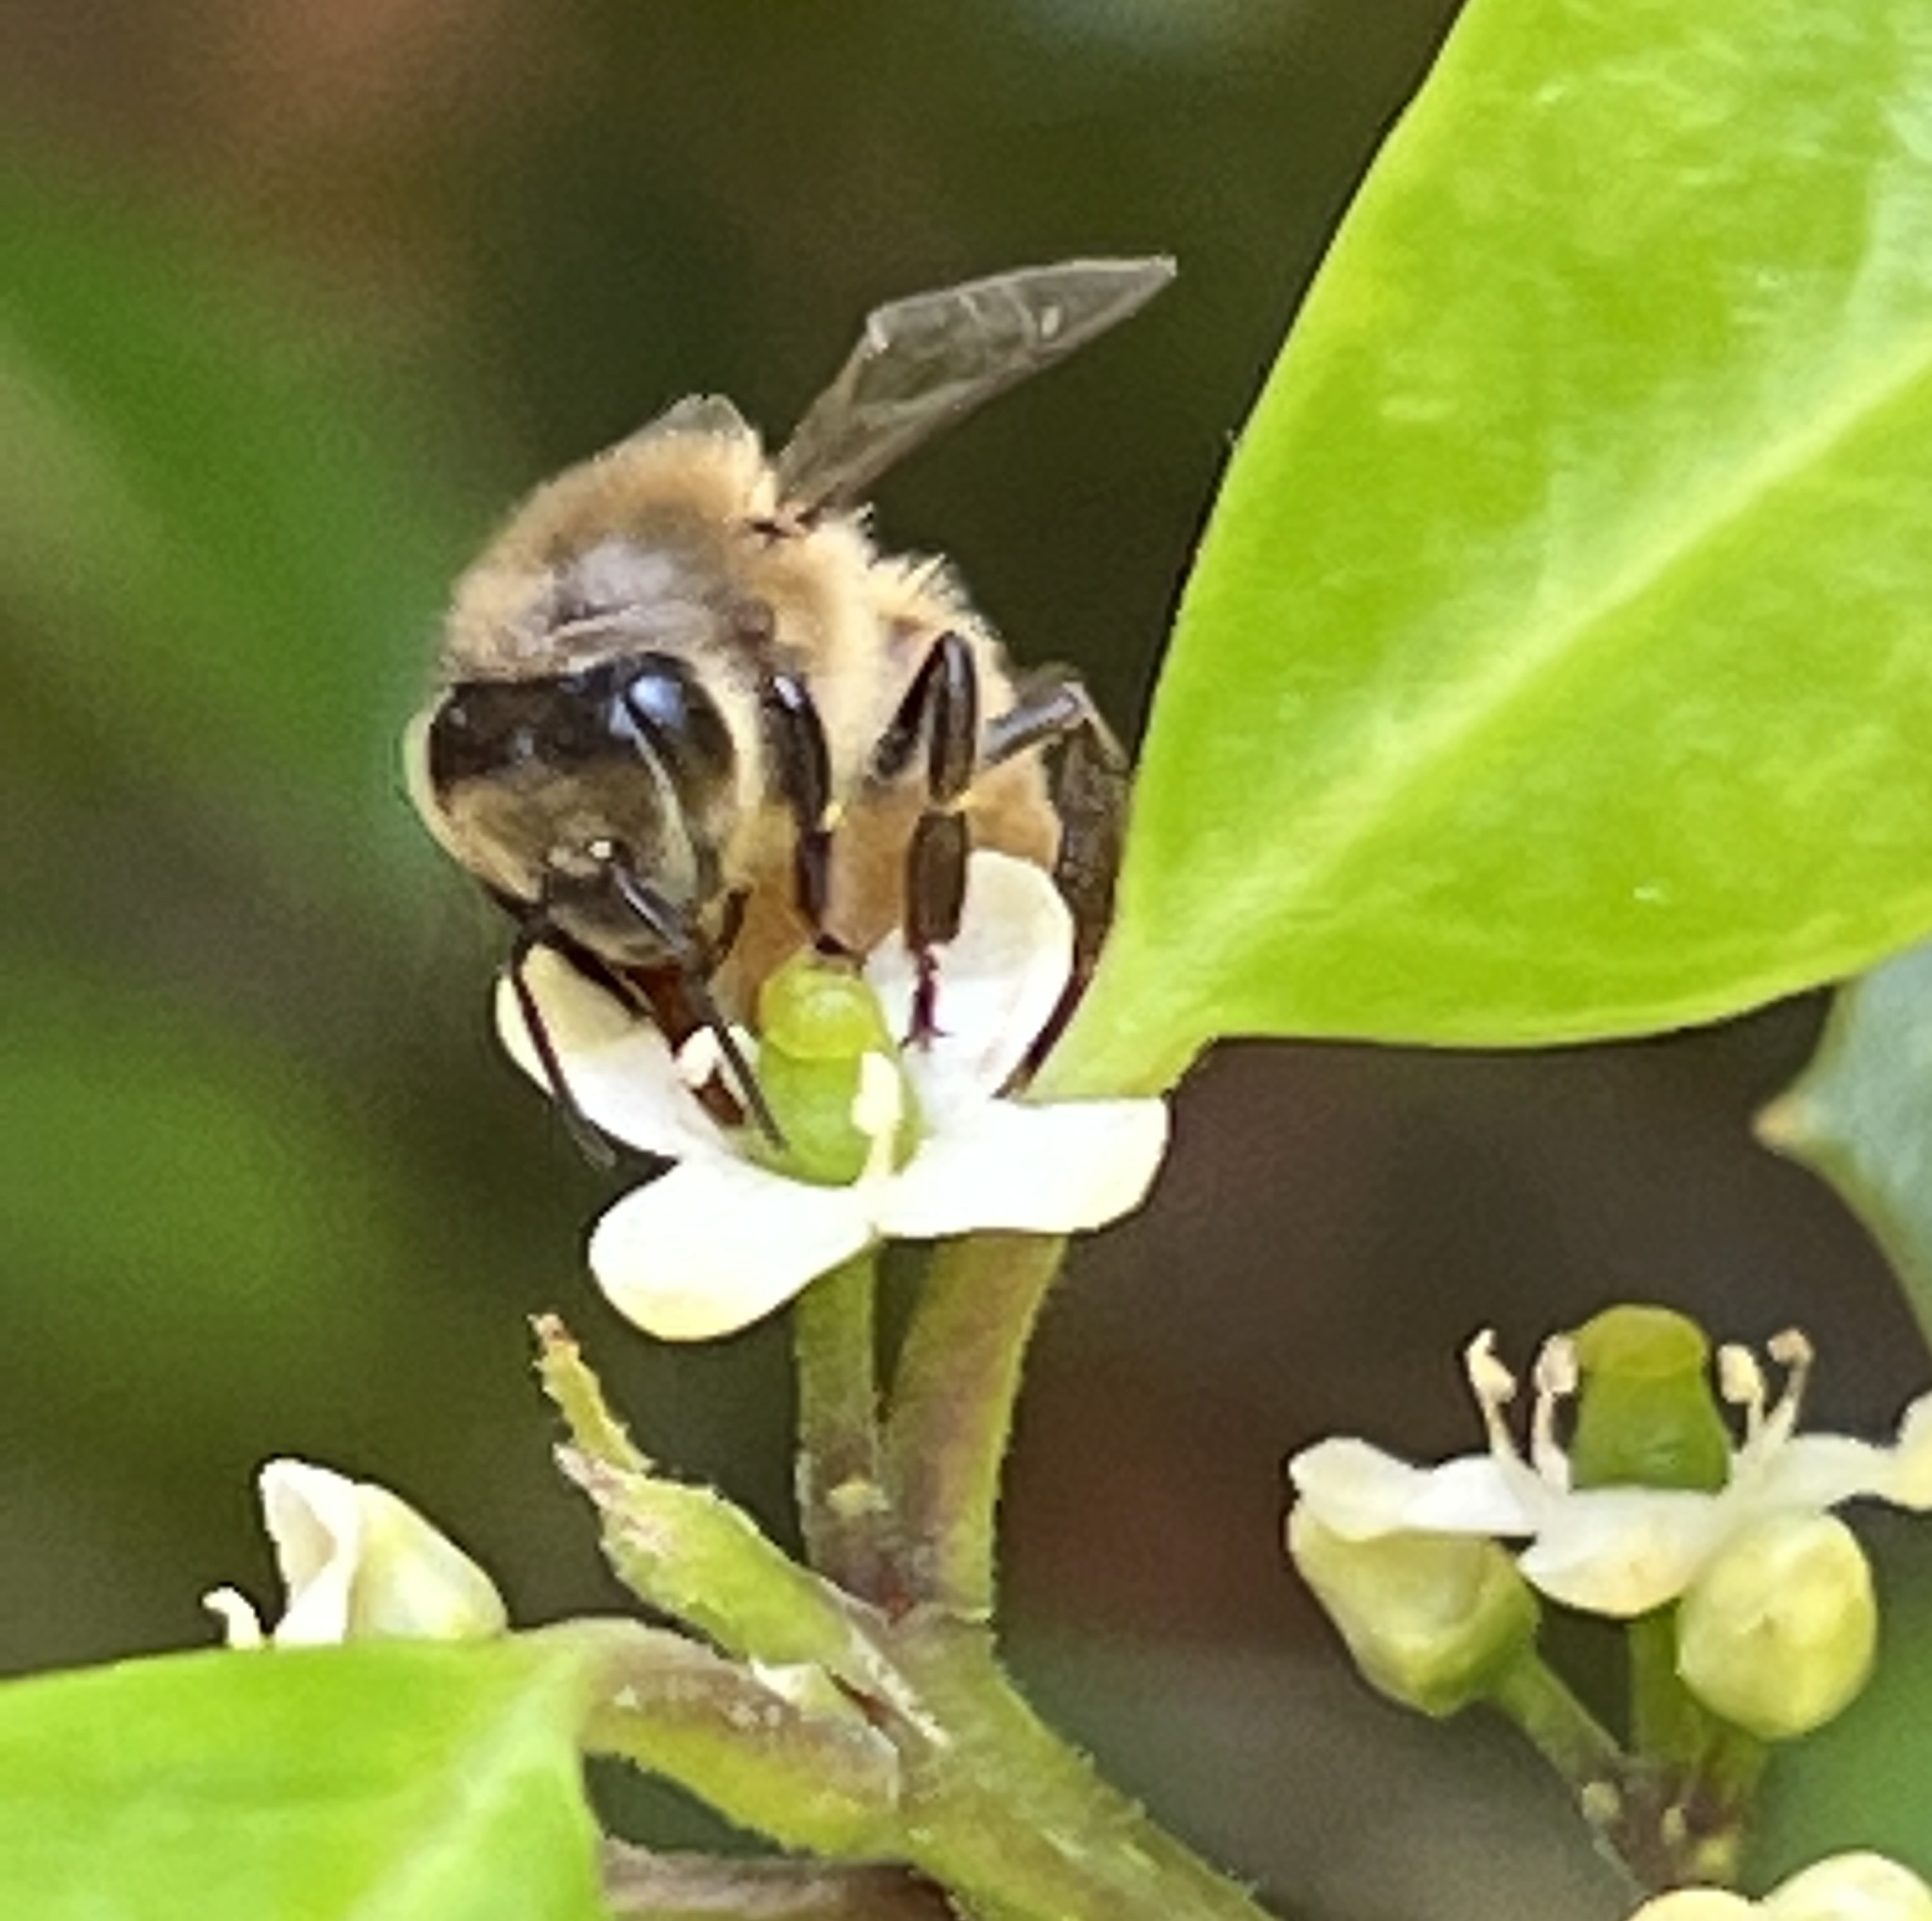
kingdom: Animalia
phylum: Arthropoda
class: Insecta
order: Hymenoptera
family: Apidae
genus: Apis
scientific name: Apis mellifera
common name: Honey bee
